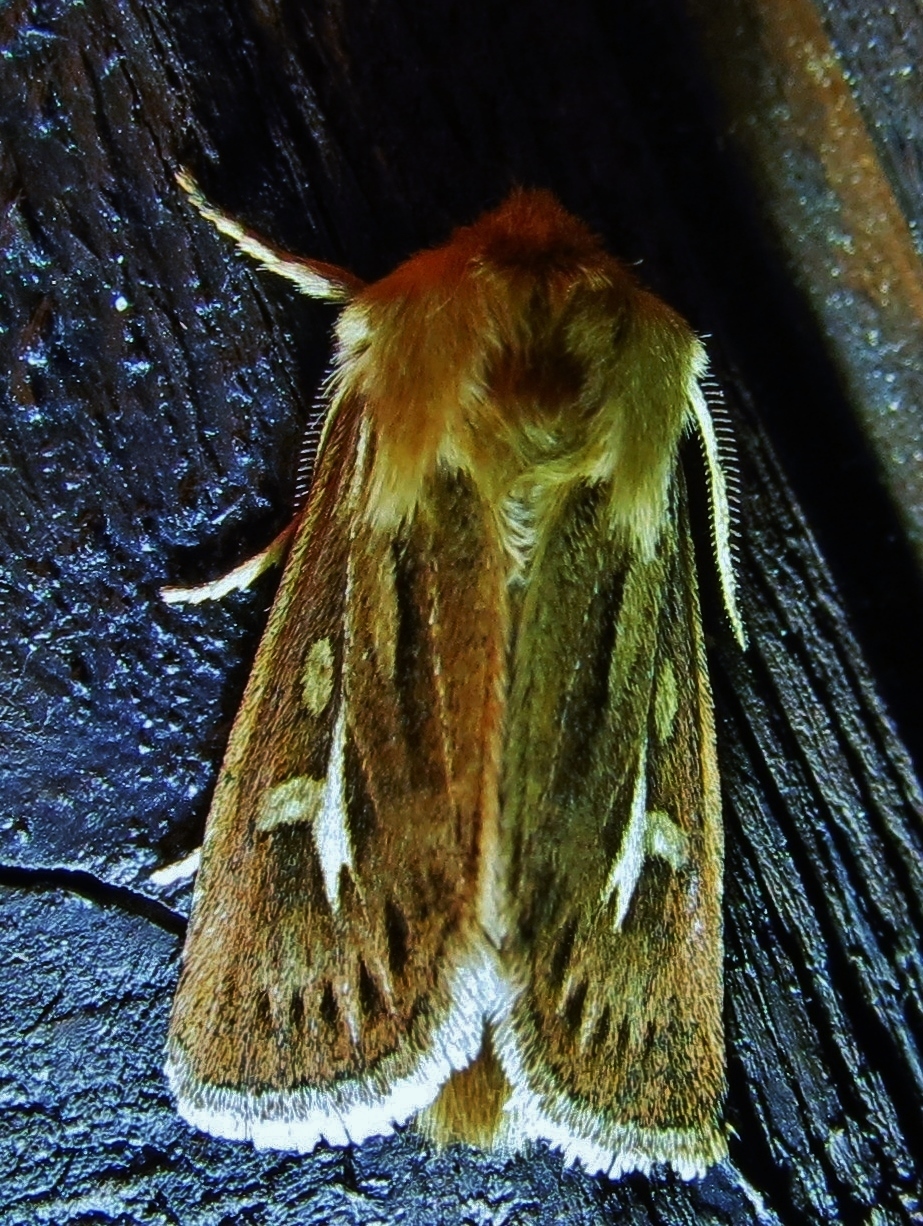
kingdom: Animalia
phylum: Arthropoda
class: Insecta
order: Lepidoptera
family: Noctuidae
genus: Cerapteryx
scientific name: Cerapteryx graminis
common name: Antler moth
